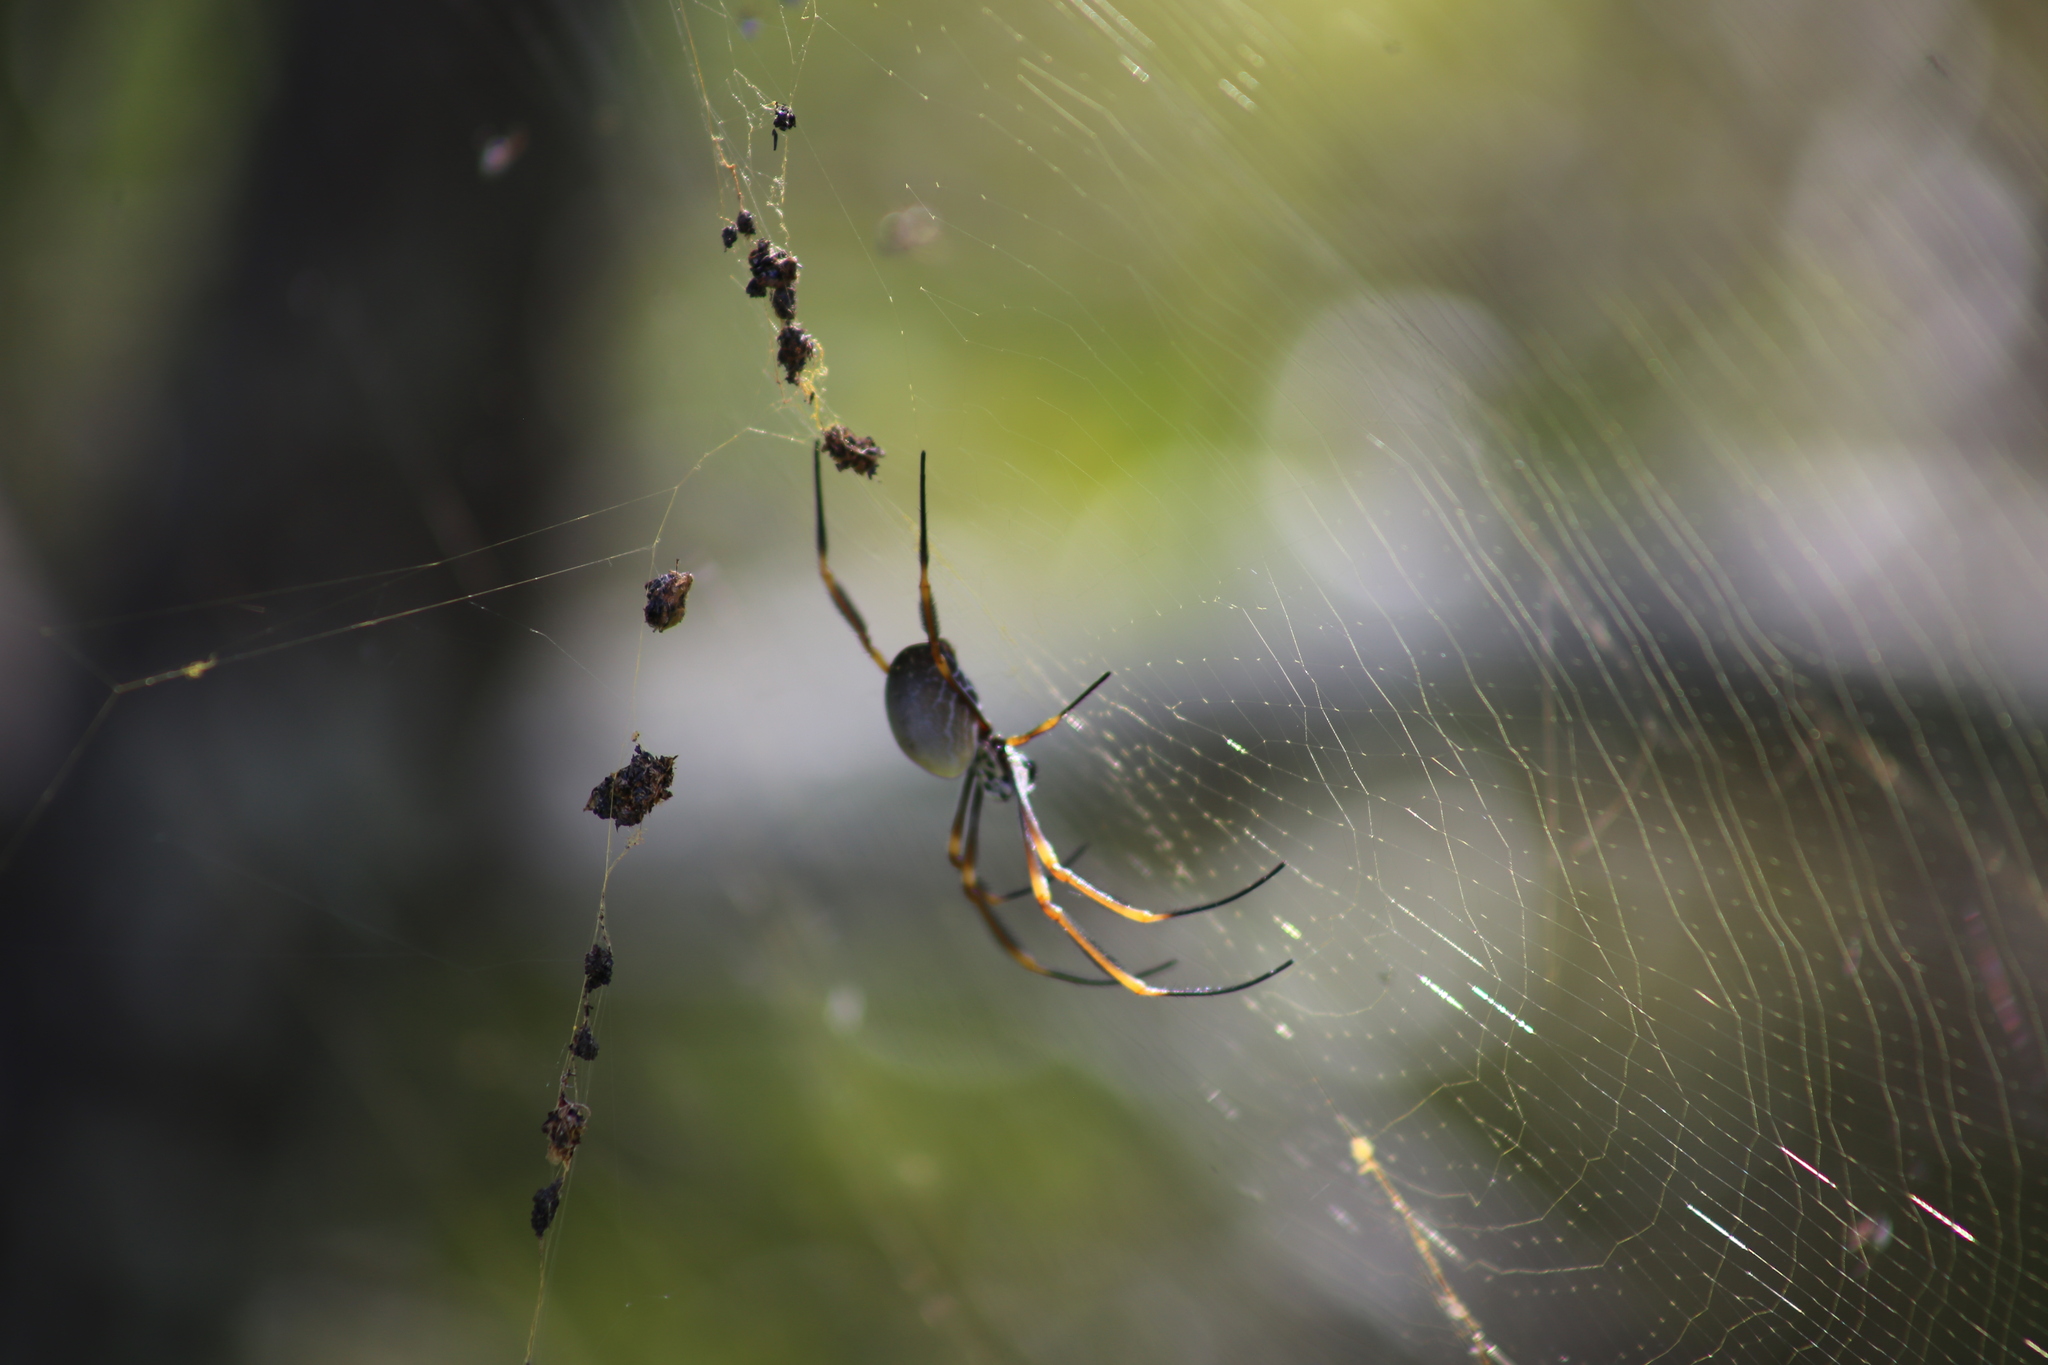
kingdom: Animalia
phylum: Arthropoda
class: Arachnida
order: Araneae
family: Araneidae
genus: Trichonephila
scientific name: Trichonephila plumipes
